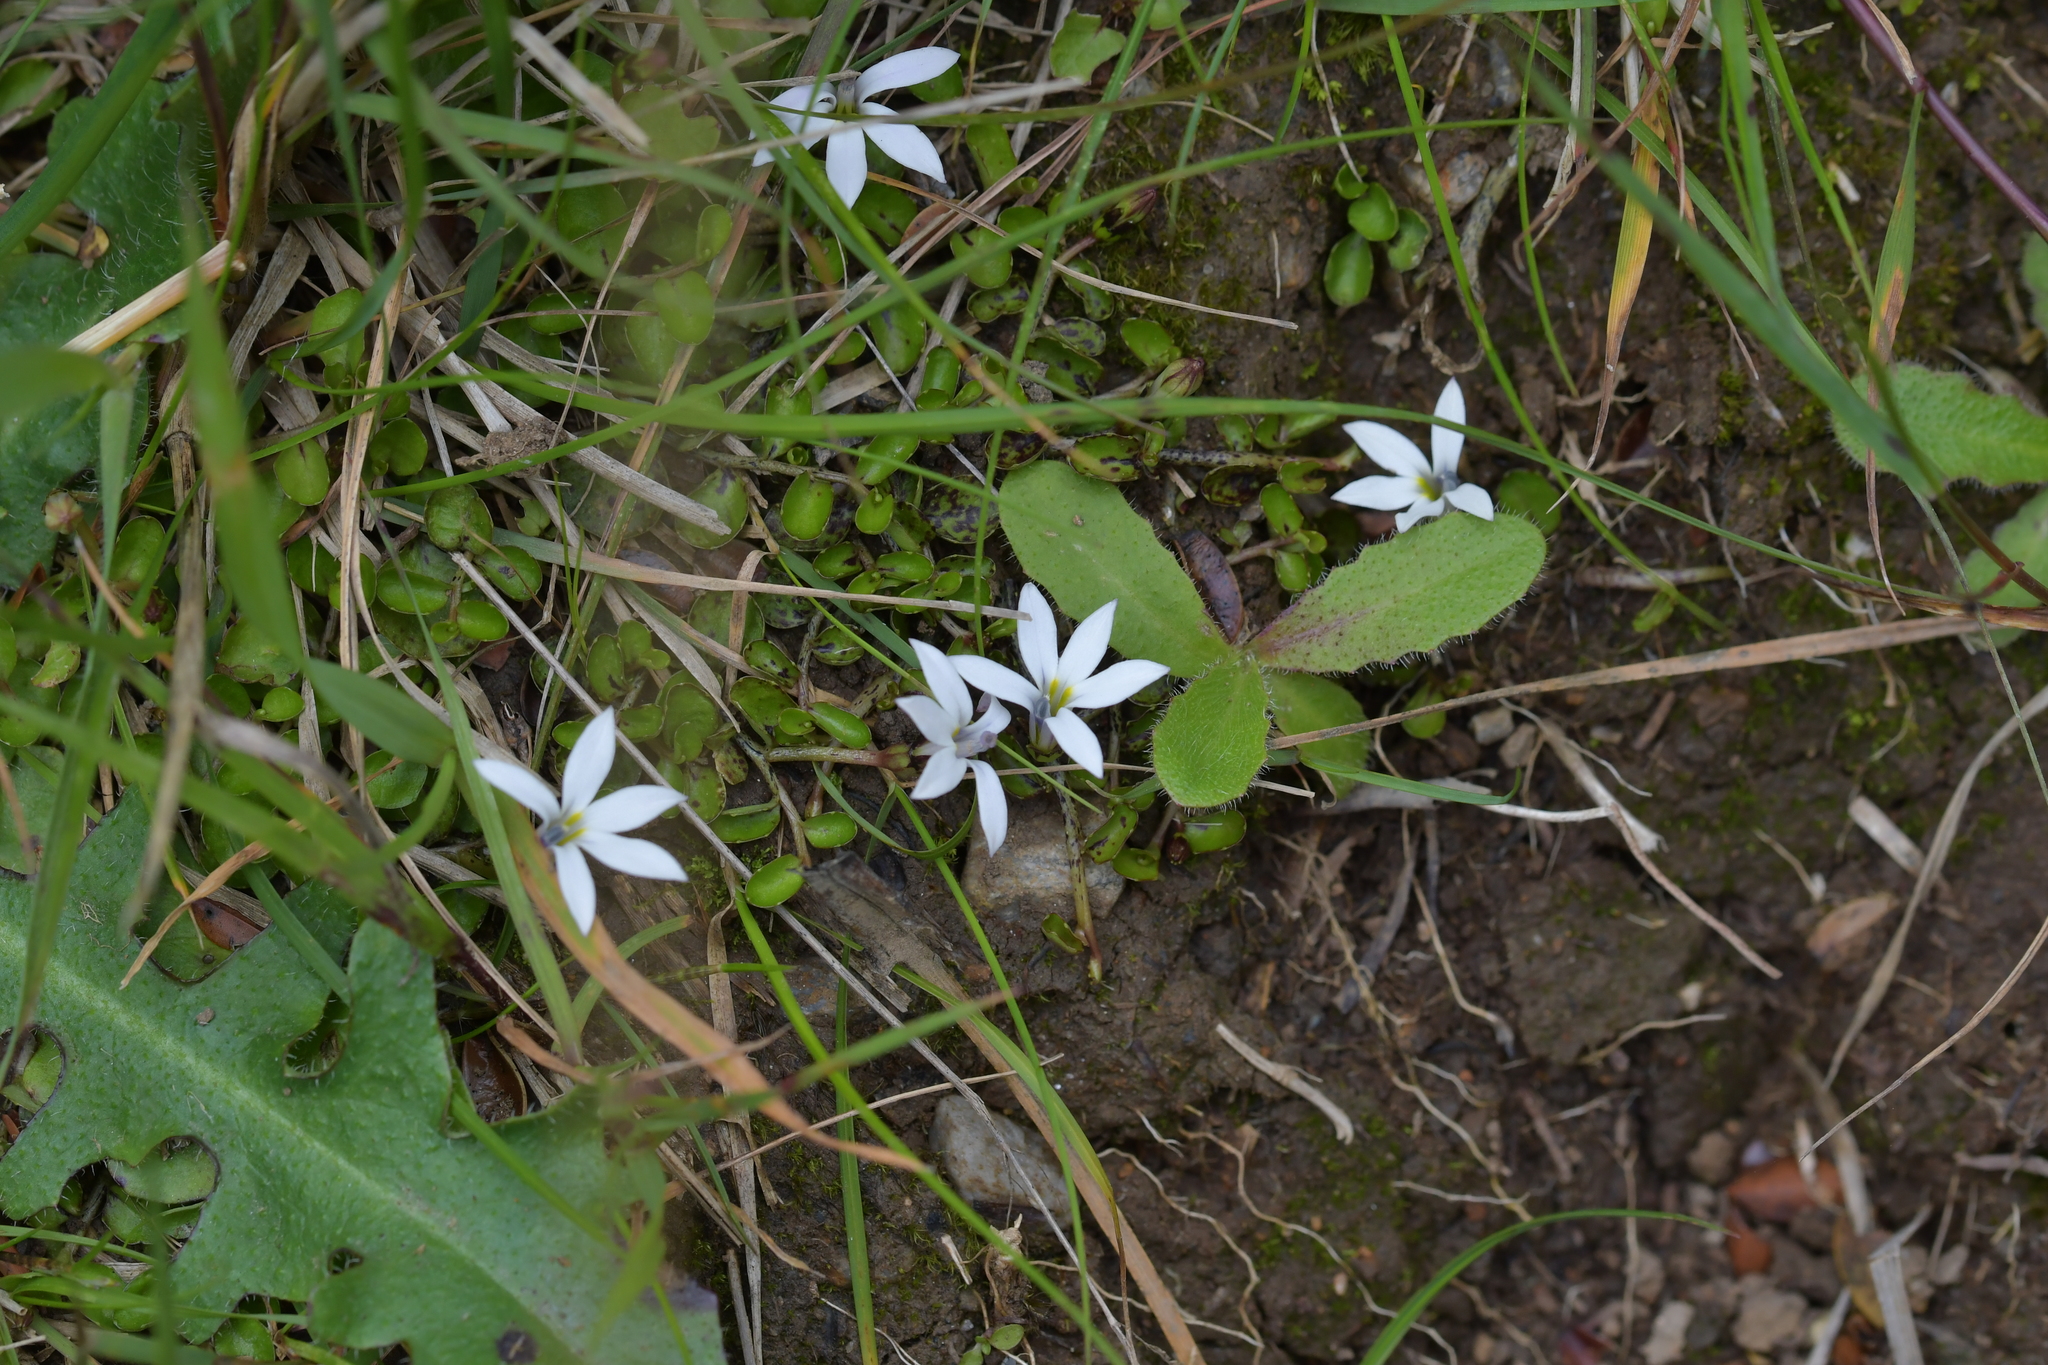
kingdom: Plantae
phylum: Tracheophyta
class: Magnoliopsida
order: Asterales
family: Campanulaceae
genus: Lobelia
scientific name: Lobelia angulata
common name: Lawn lobelia
